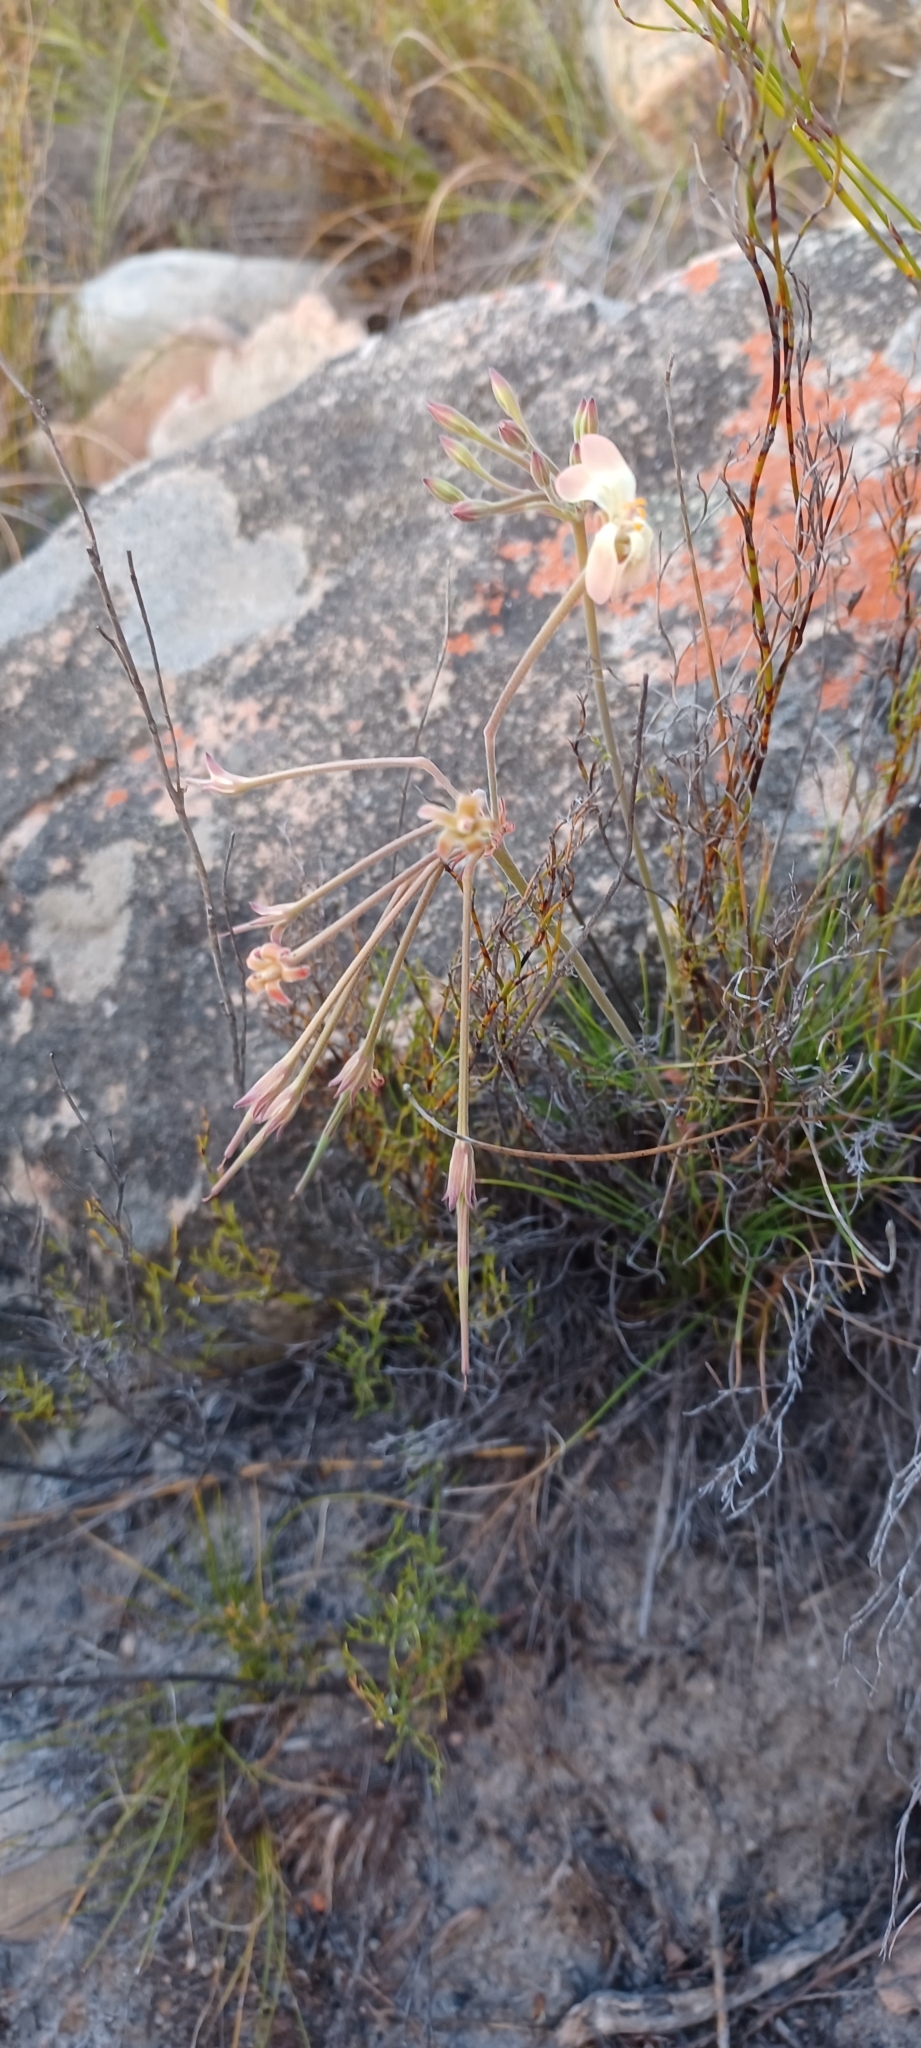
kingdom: Plantae
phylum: Tracheophyta
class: Magnoliopsida
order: Geraniales
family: Geraniaceae
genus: Pelargonium
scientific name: Pelargonium pillansii
